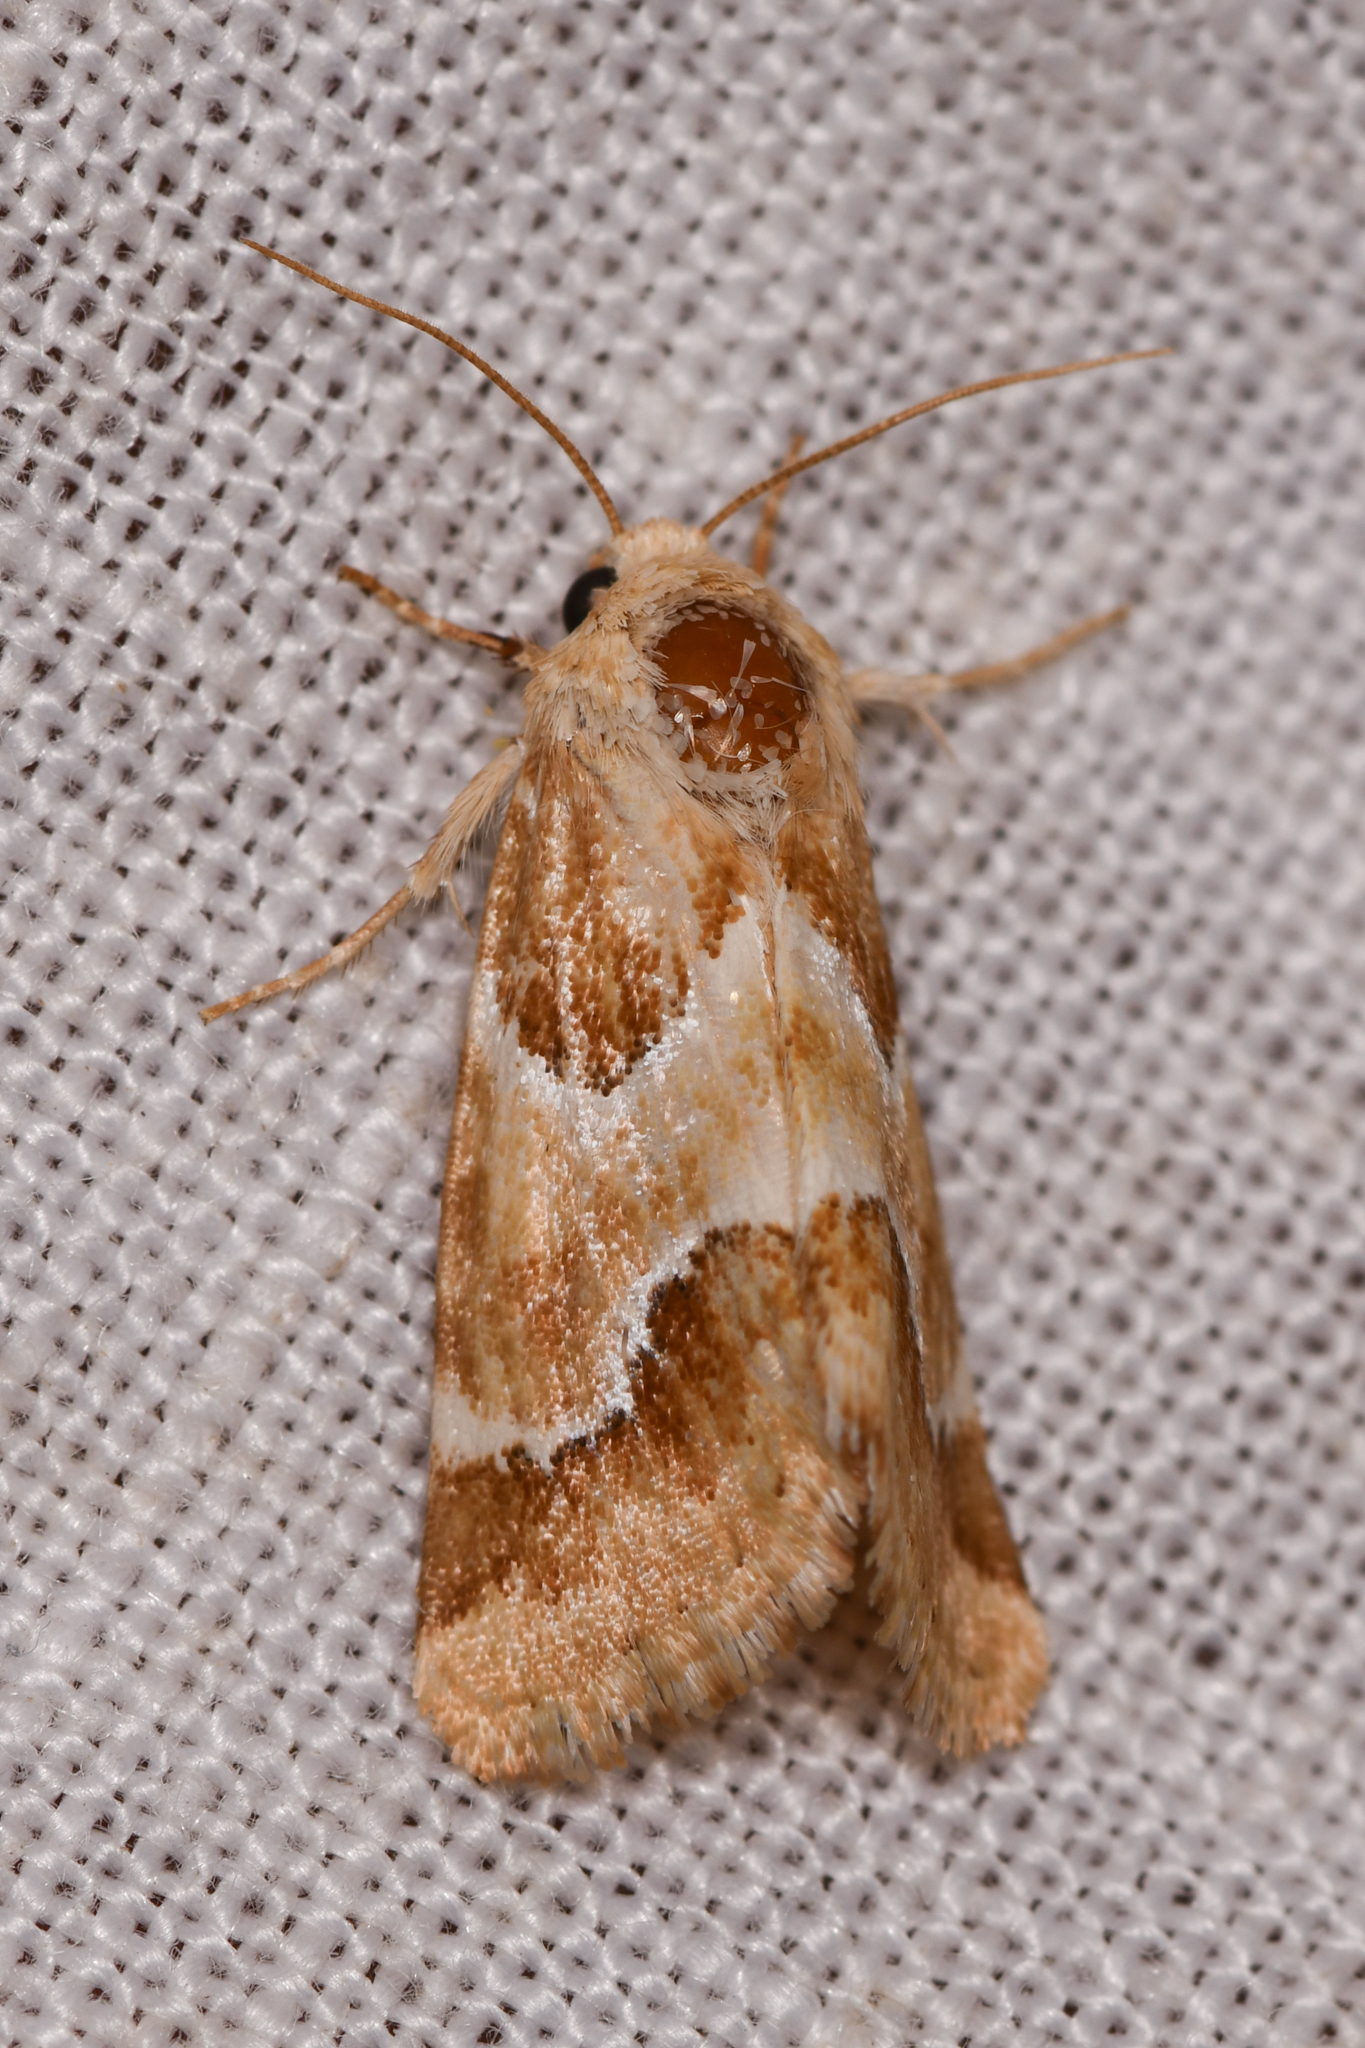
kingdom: Animalia
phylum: Arthropoda
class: Insecta
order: Lepidoptera
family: Noctuidae
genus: Schinia
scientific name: Schinia argentifascia
